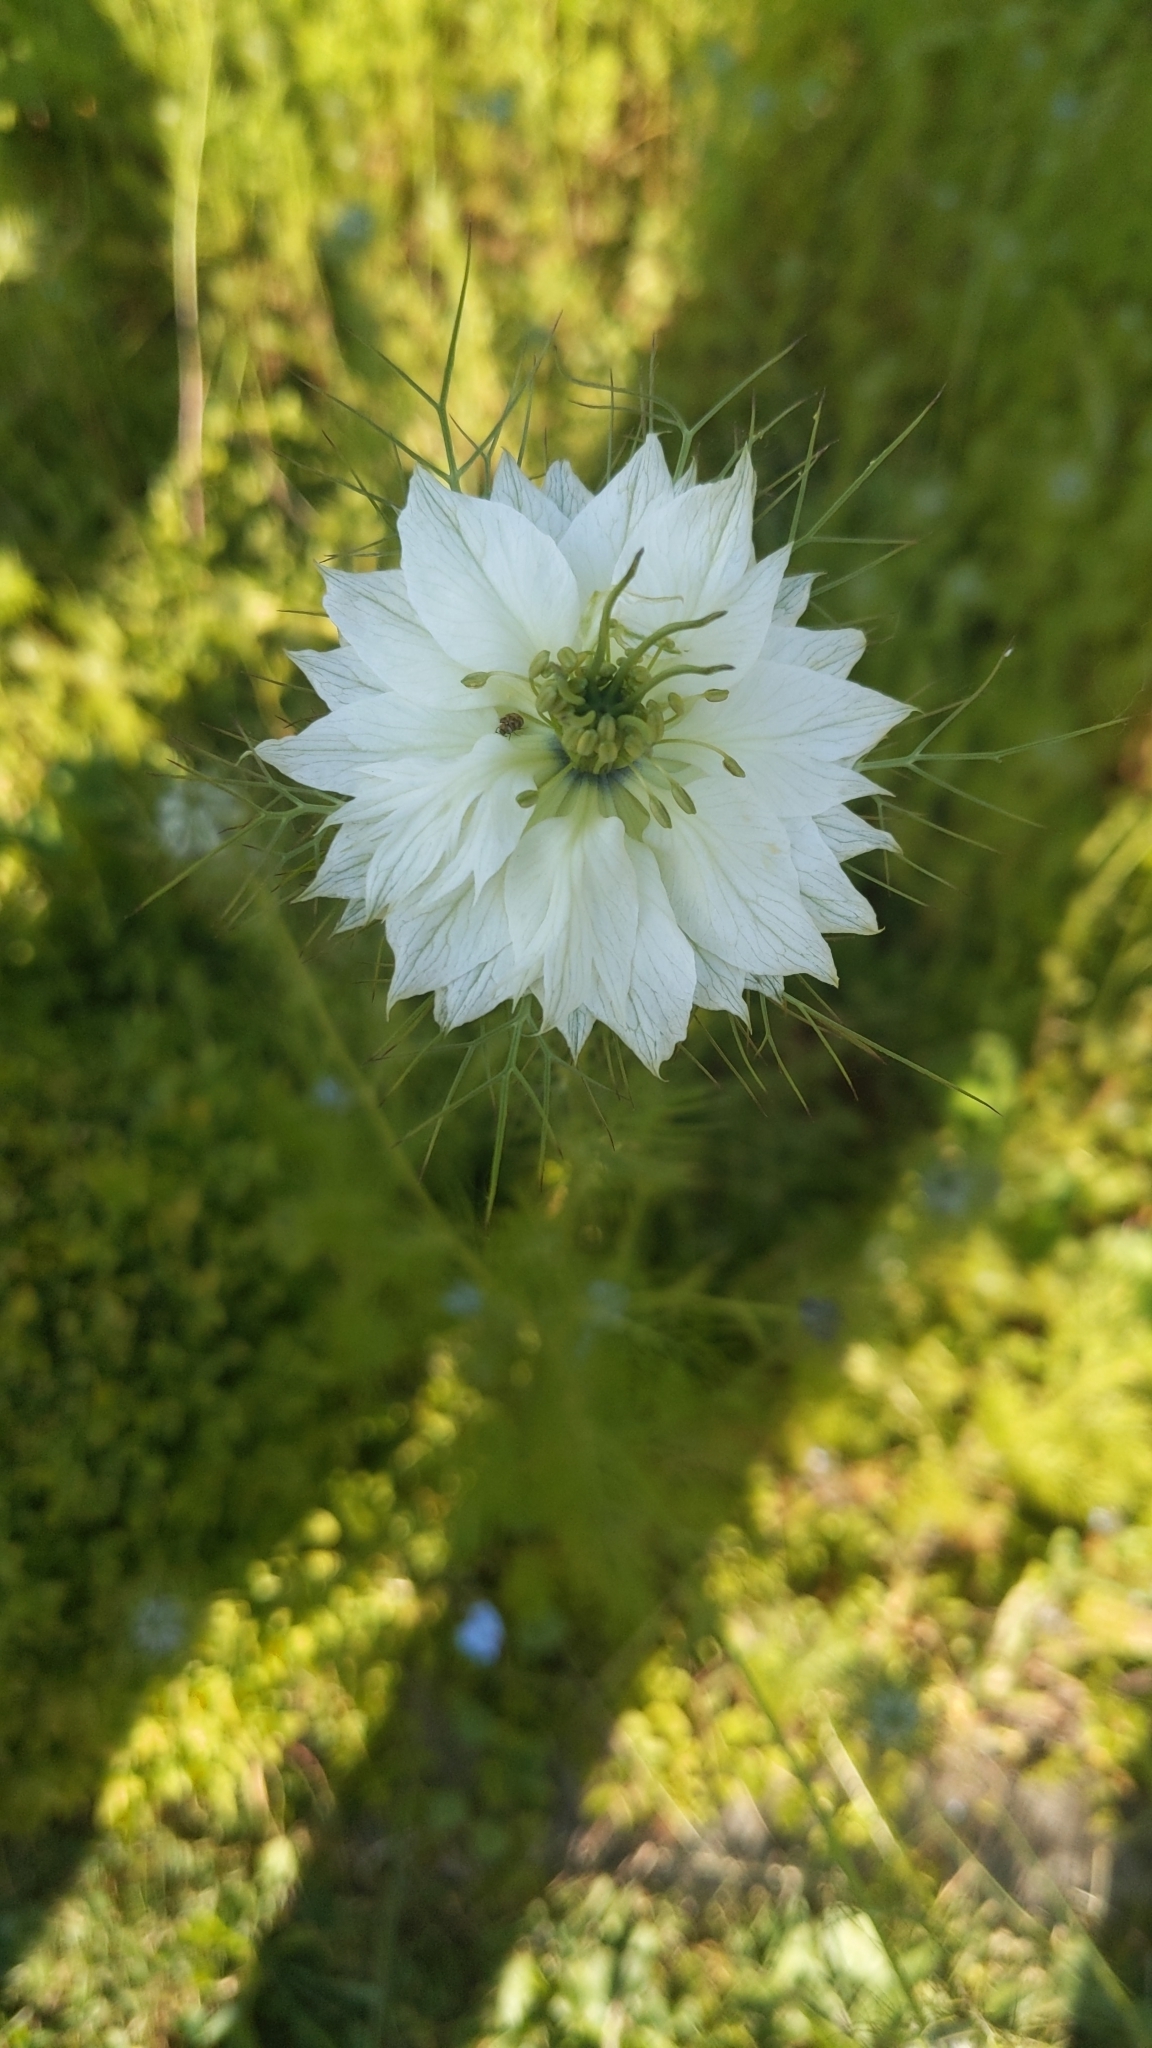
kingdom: Plantae
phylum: Tracheophyta
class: Magnoliopsida
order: Ranunculales
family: Ranunculaceae
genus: Nigella
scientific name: Nigella damascena
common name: Love-in-a-mist
